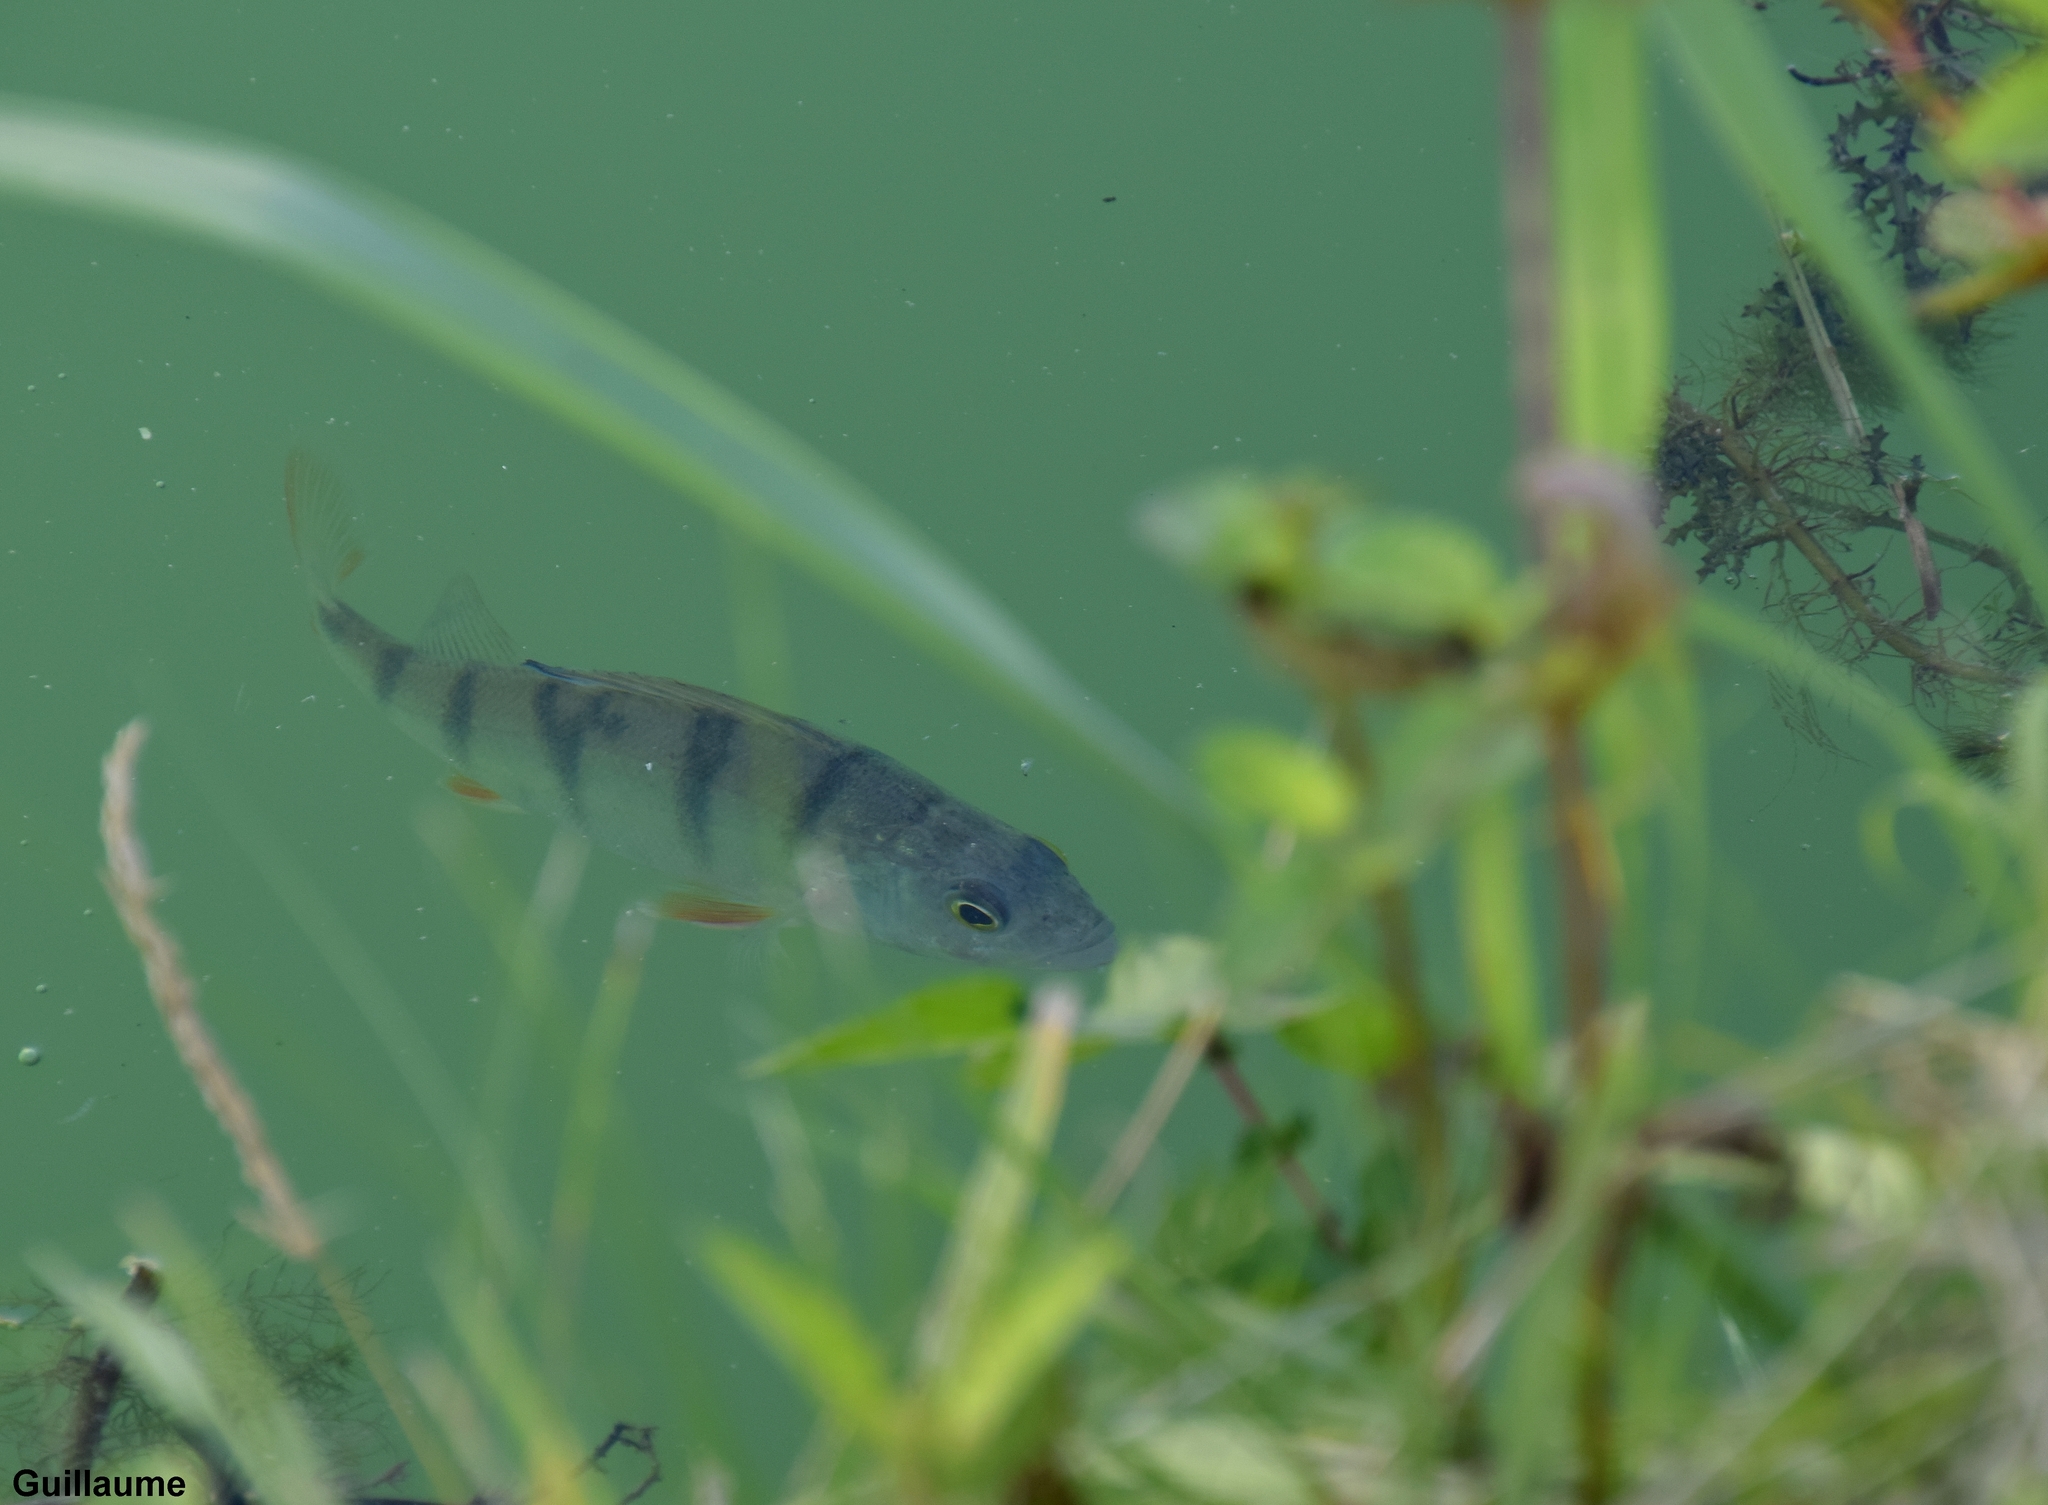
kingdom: Animalia
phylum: Chordata
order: Perciformes
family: Percidae
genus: Perca
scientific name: Perca fluviatilis
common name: Perch
